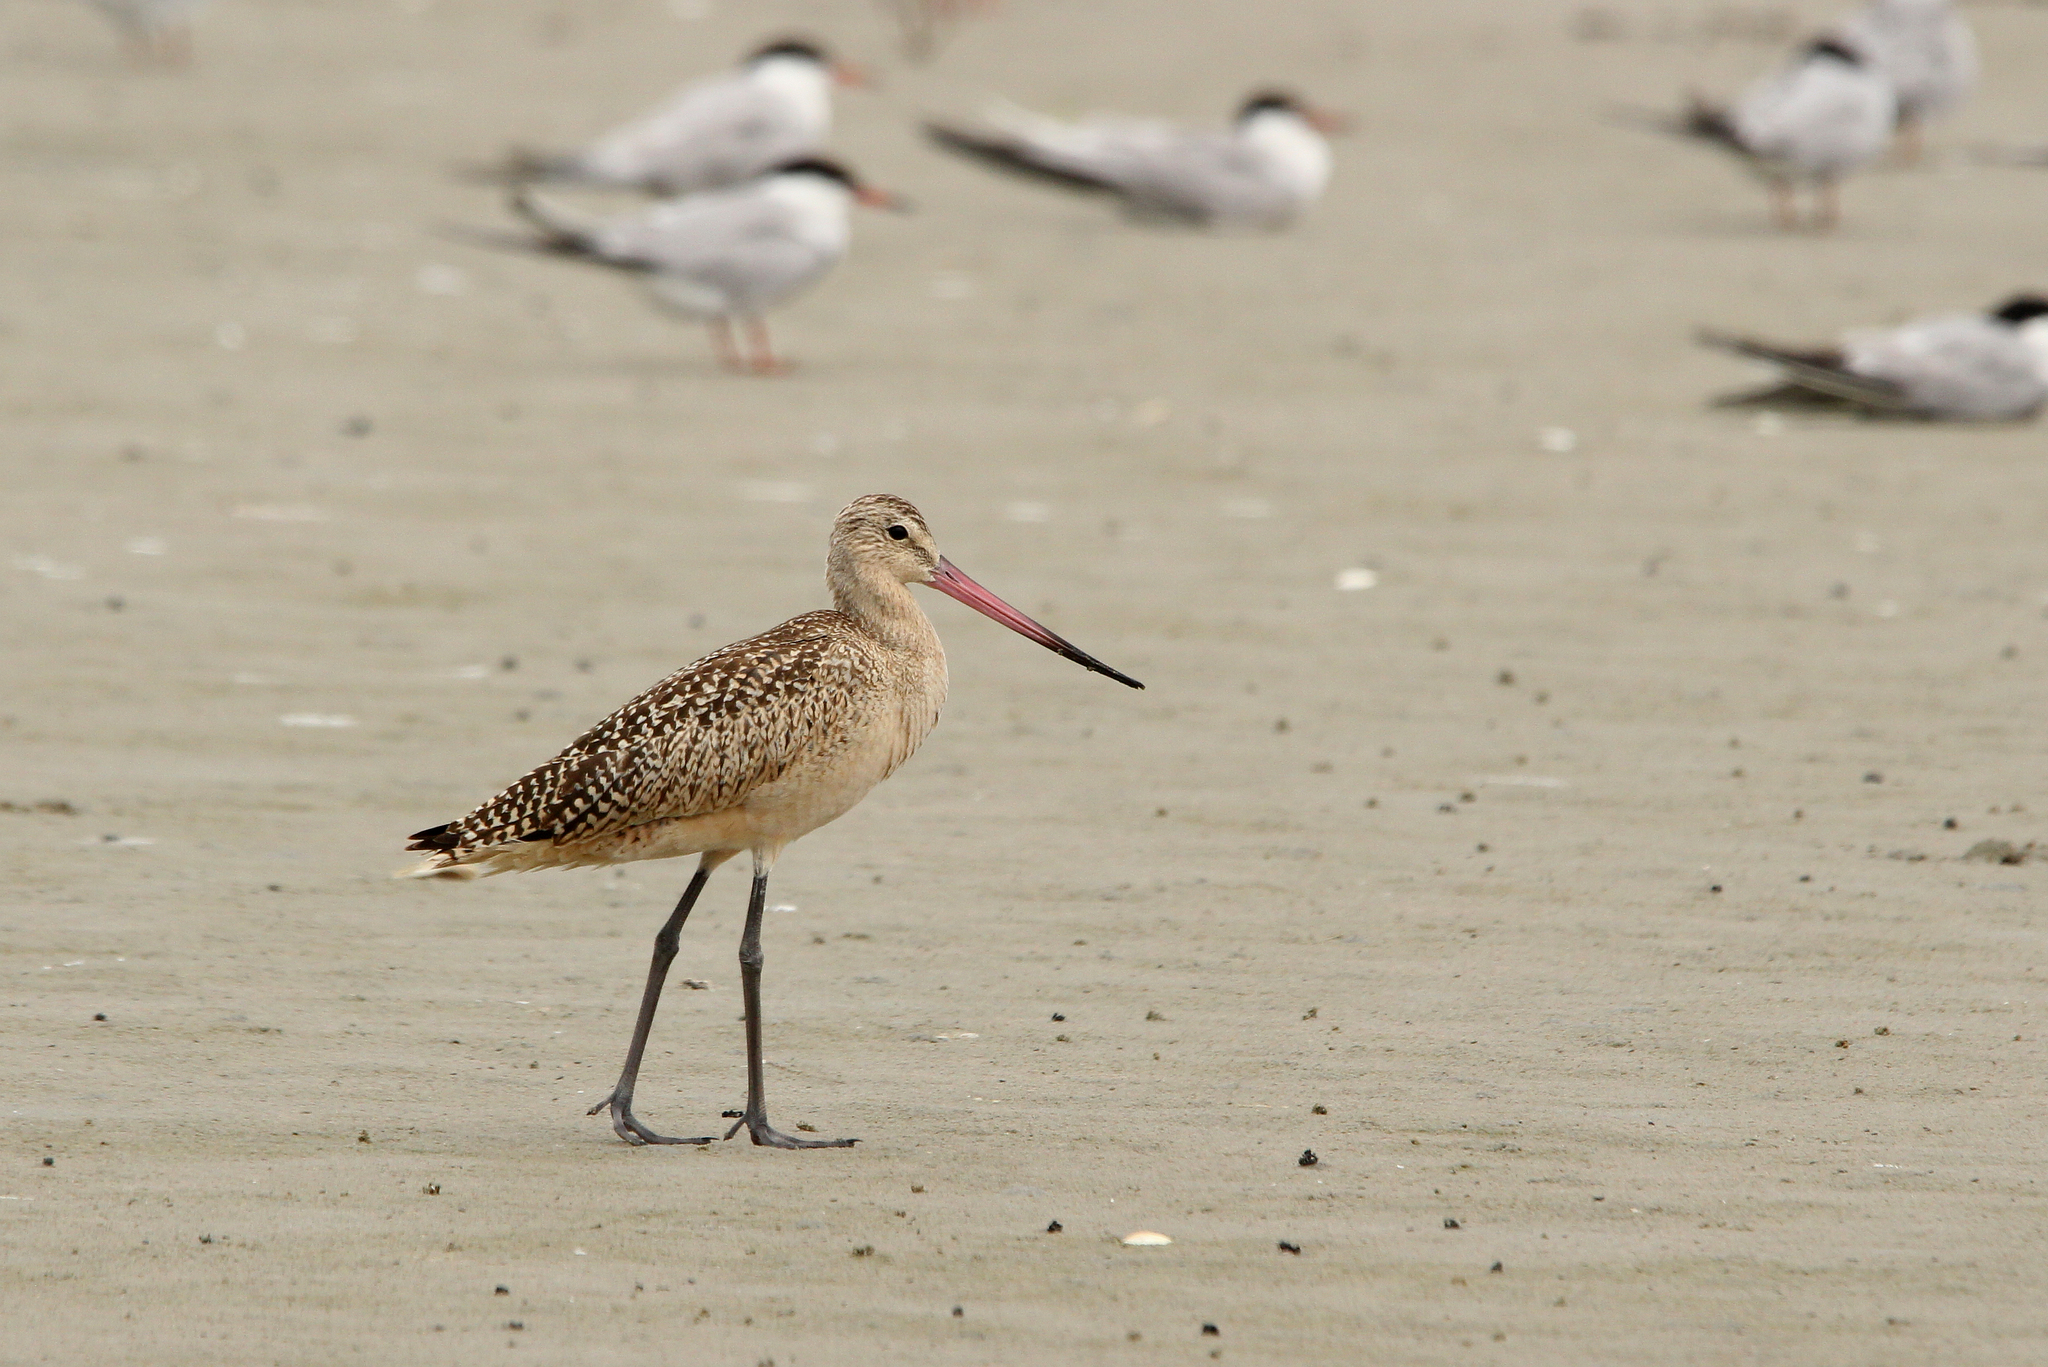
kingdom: Animalia
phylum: Chordata
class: Aves
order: Charadriiformes
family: Scolopacidae
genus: Limosa
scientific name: Limosa fedoa
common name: Marbled godwit
